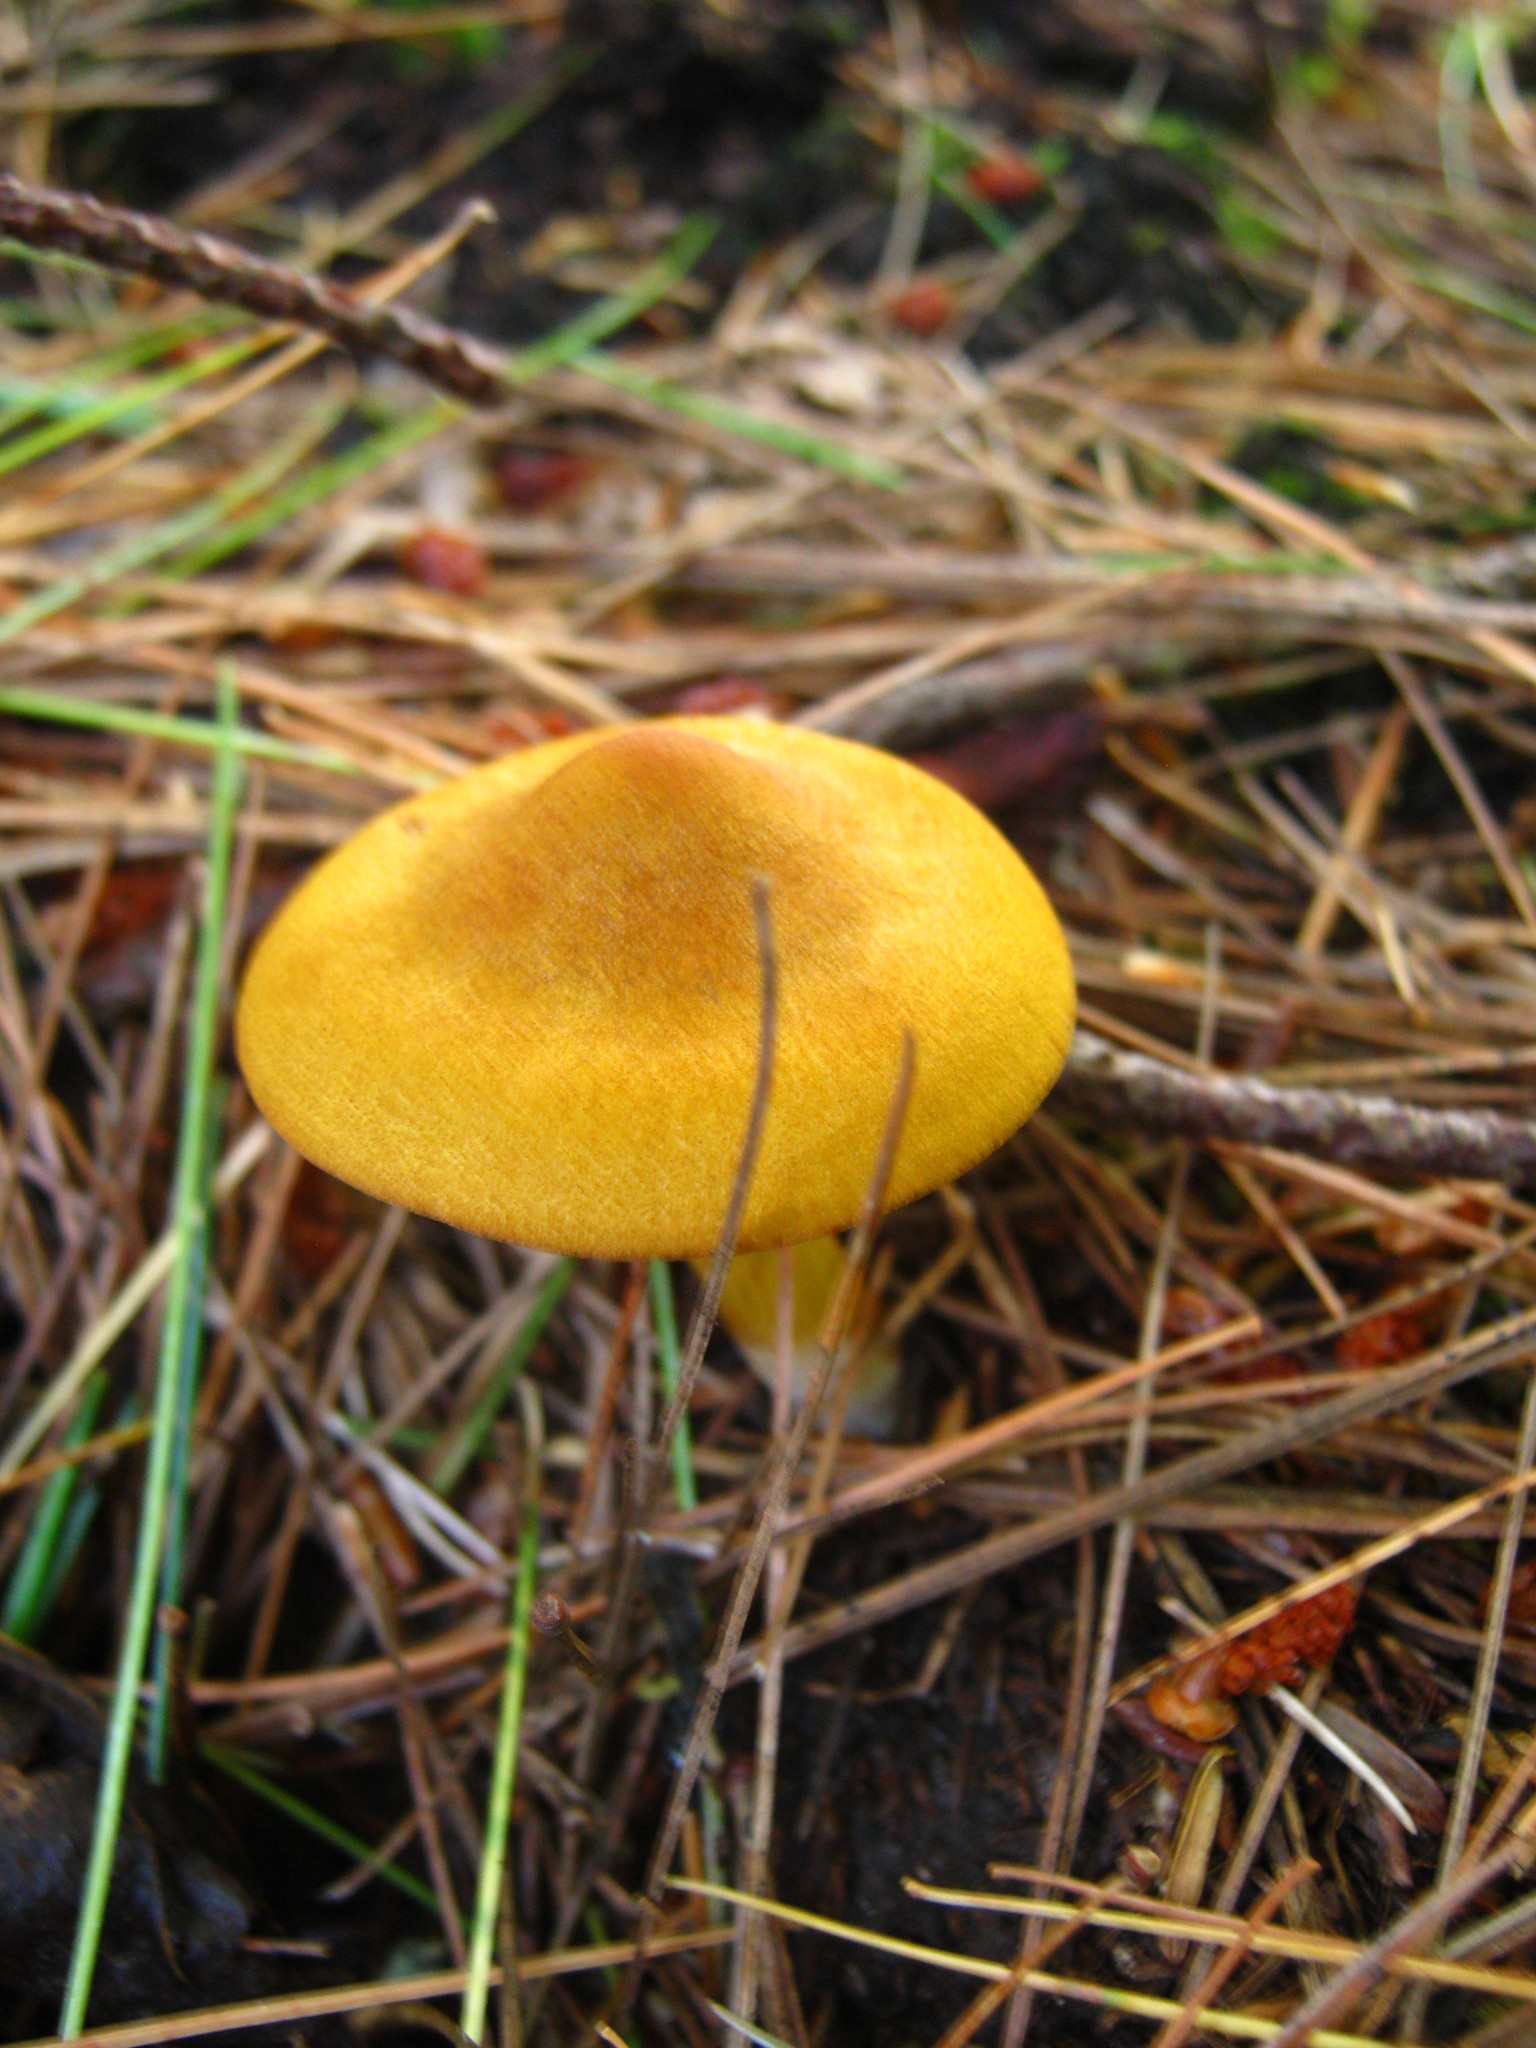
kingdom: Fungi
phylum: Basidiomycota
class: Agaricomycetes
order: Agaricales
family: Cortinariaceae
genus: Cortinarius
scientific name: Cortinarius semisanguineus
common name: Surprise webcap
